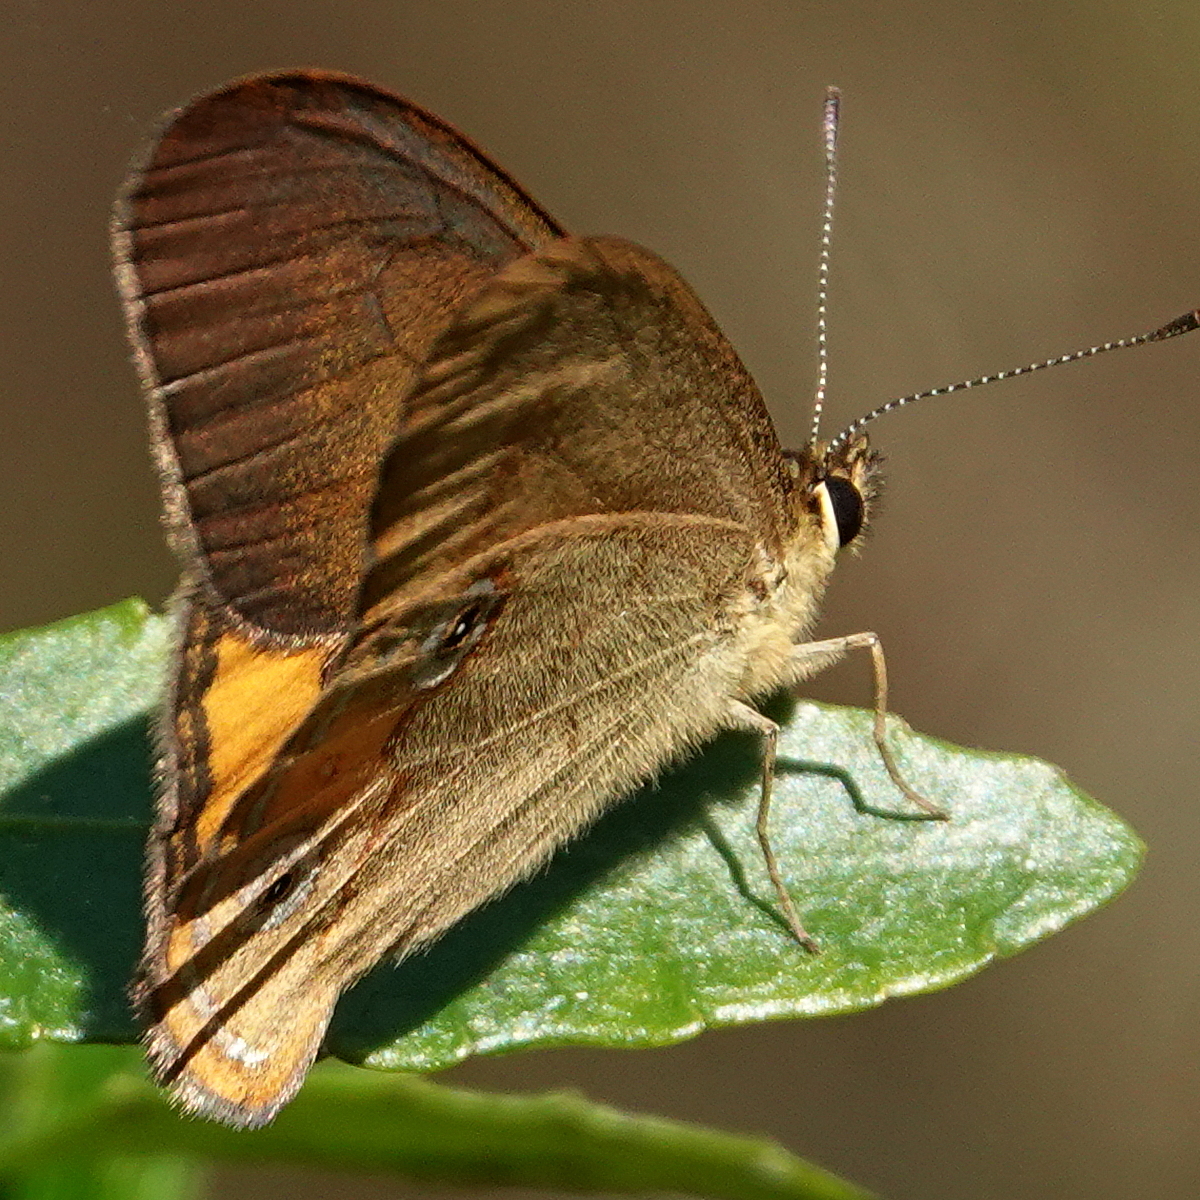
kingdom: Animalia
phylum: Arthropoda
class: Insecta
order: Lepidoptera
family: Nymphalidae
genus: Hypocysta
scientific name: Hypocysta metirius
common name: Brown ringlet
